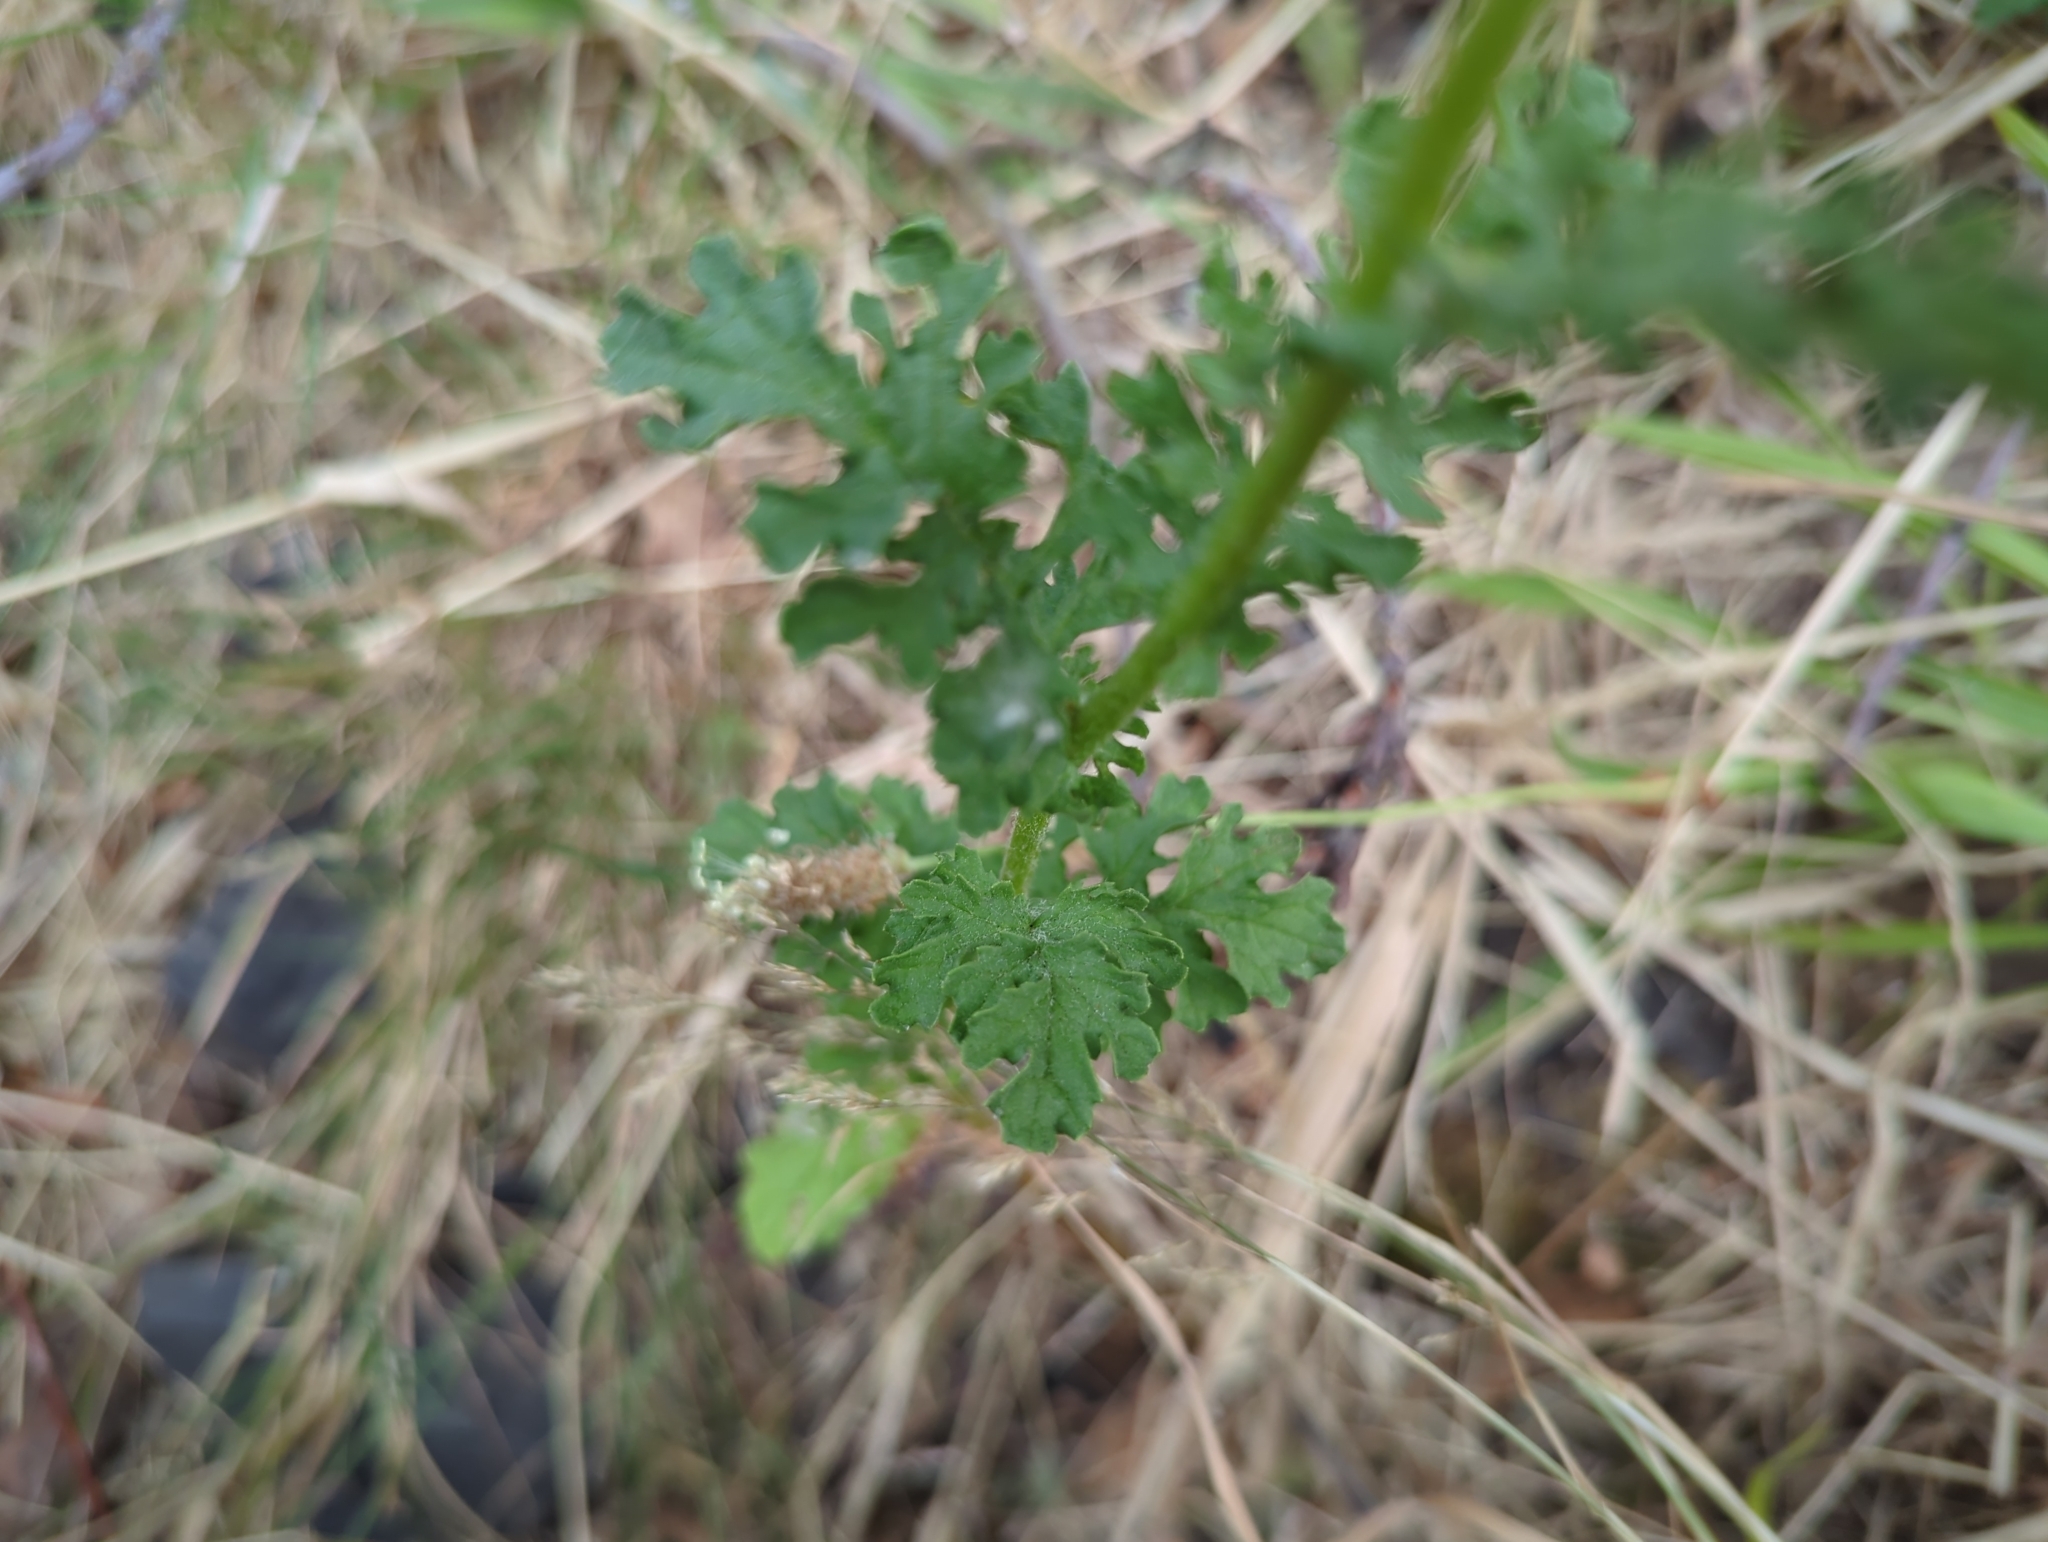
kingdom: Plantae
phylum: Tracheophyta
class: Magnoliopsida
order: Asterales
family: Asteraceae
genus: Jacobaea
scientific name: Jacobaea vulgaris
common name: Stinking willie
